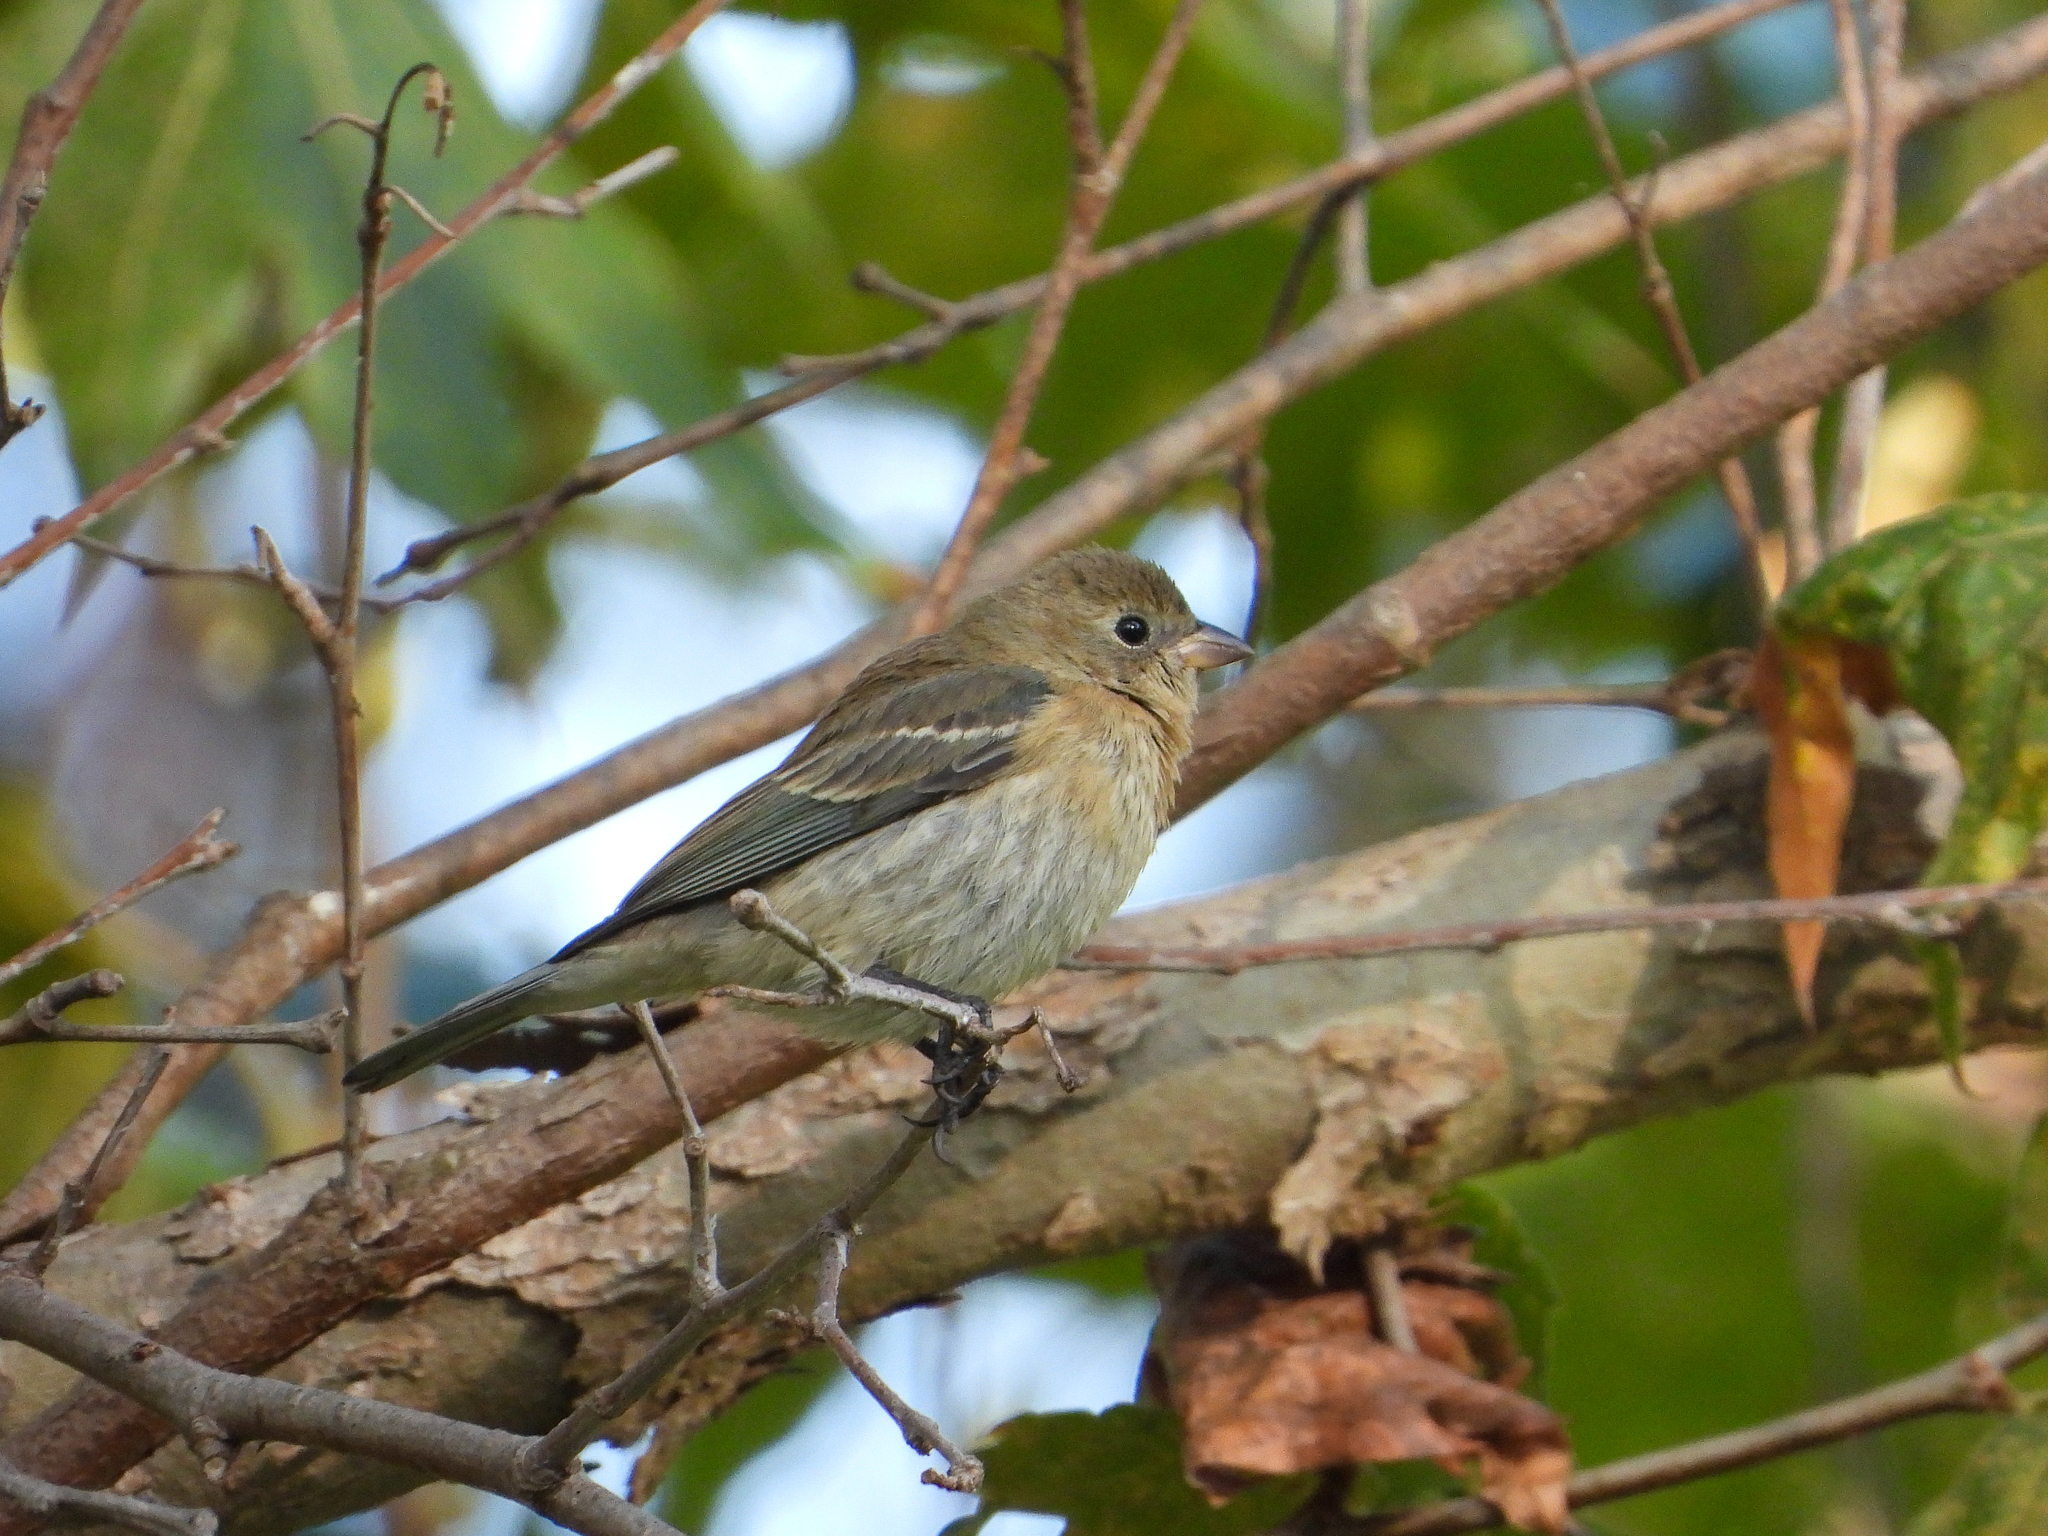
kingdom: Animalia
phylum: Chordata
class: Aves
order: Passeriformes
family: Cardinalidae
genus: Passerina
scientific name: Passerina amoena
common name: Lazuli bunting
